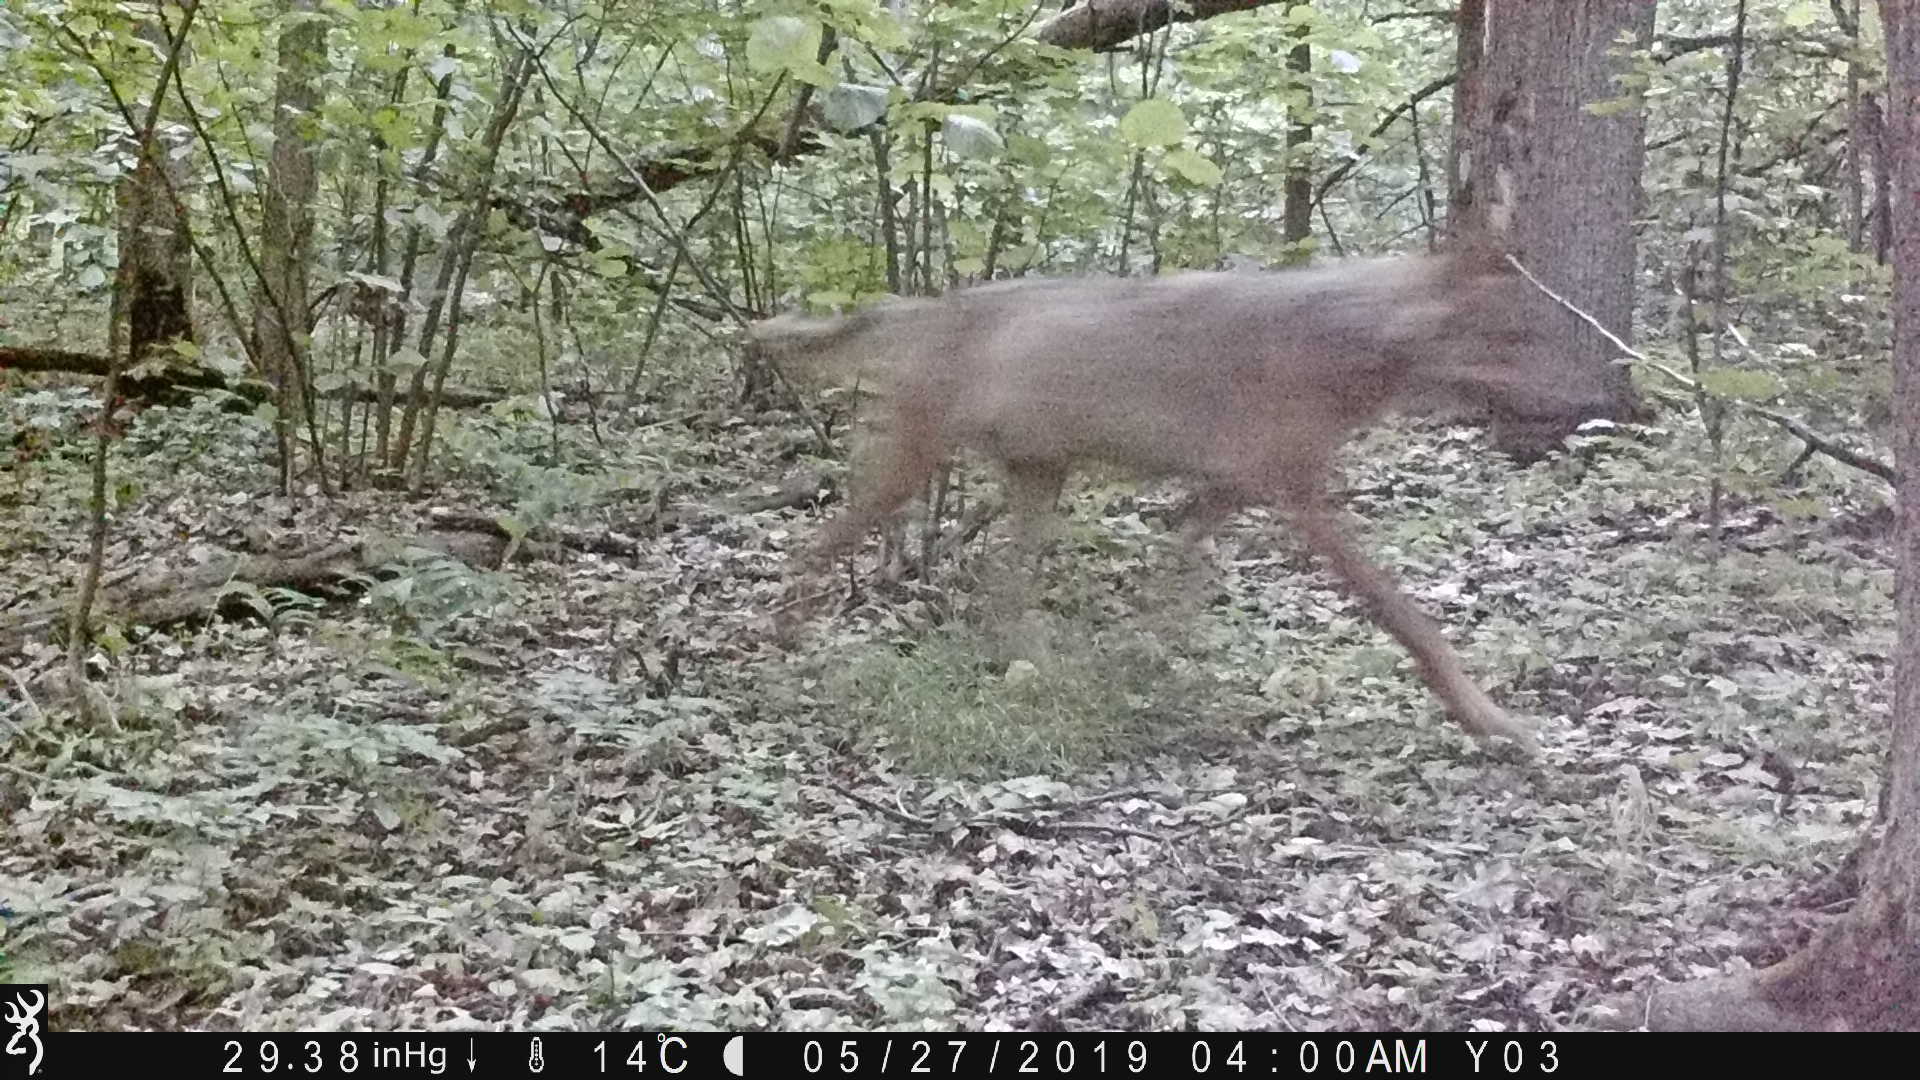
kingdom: Animalia
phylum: Chordata
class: Mammalia
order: Carnivora
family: Canidae
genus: Canis
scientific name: Canis lupus
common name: Gray wolf
